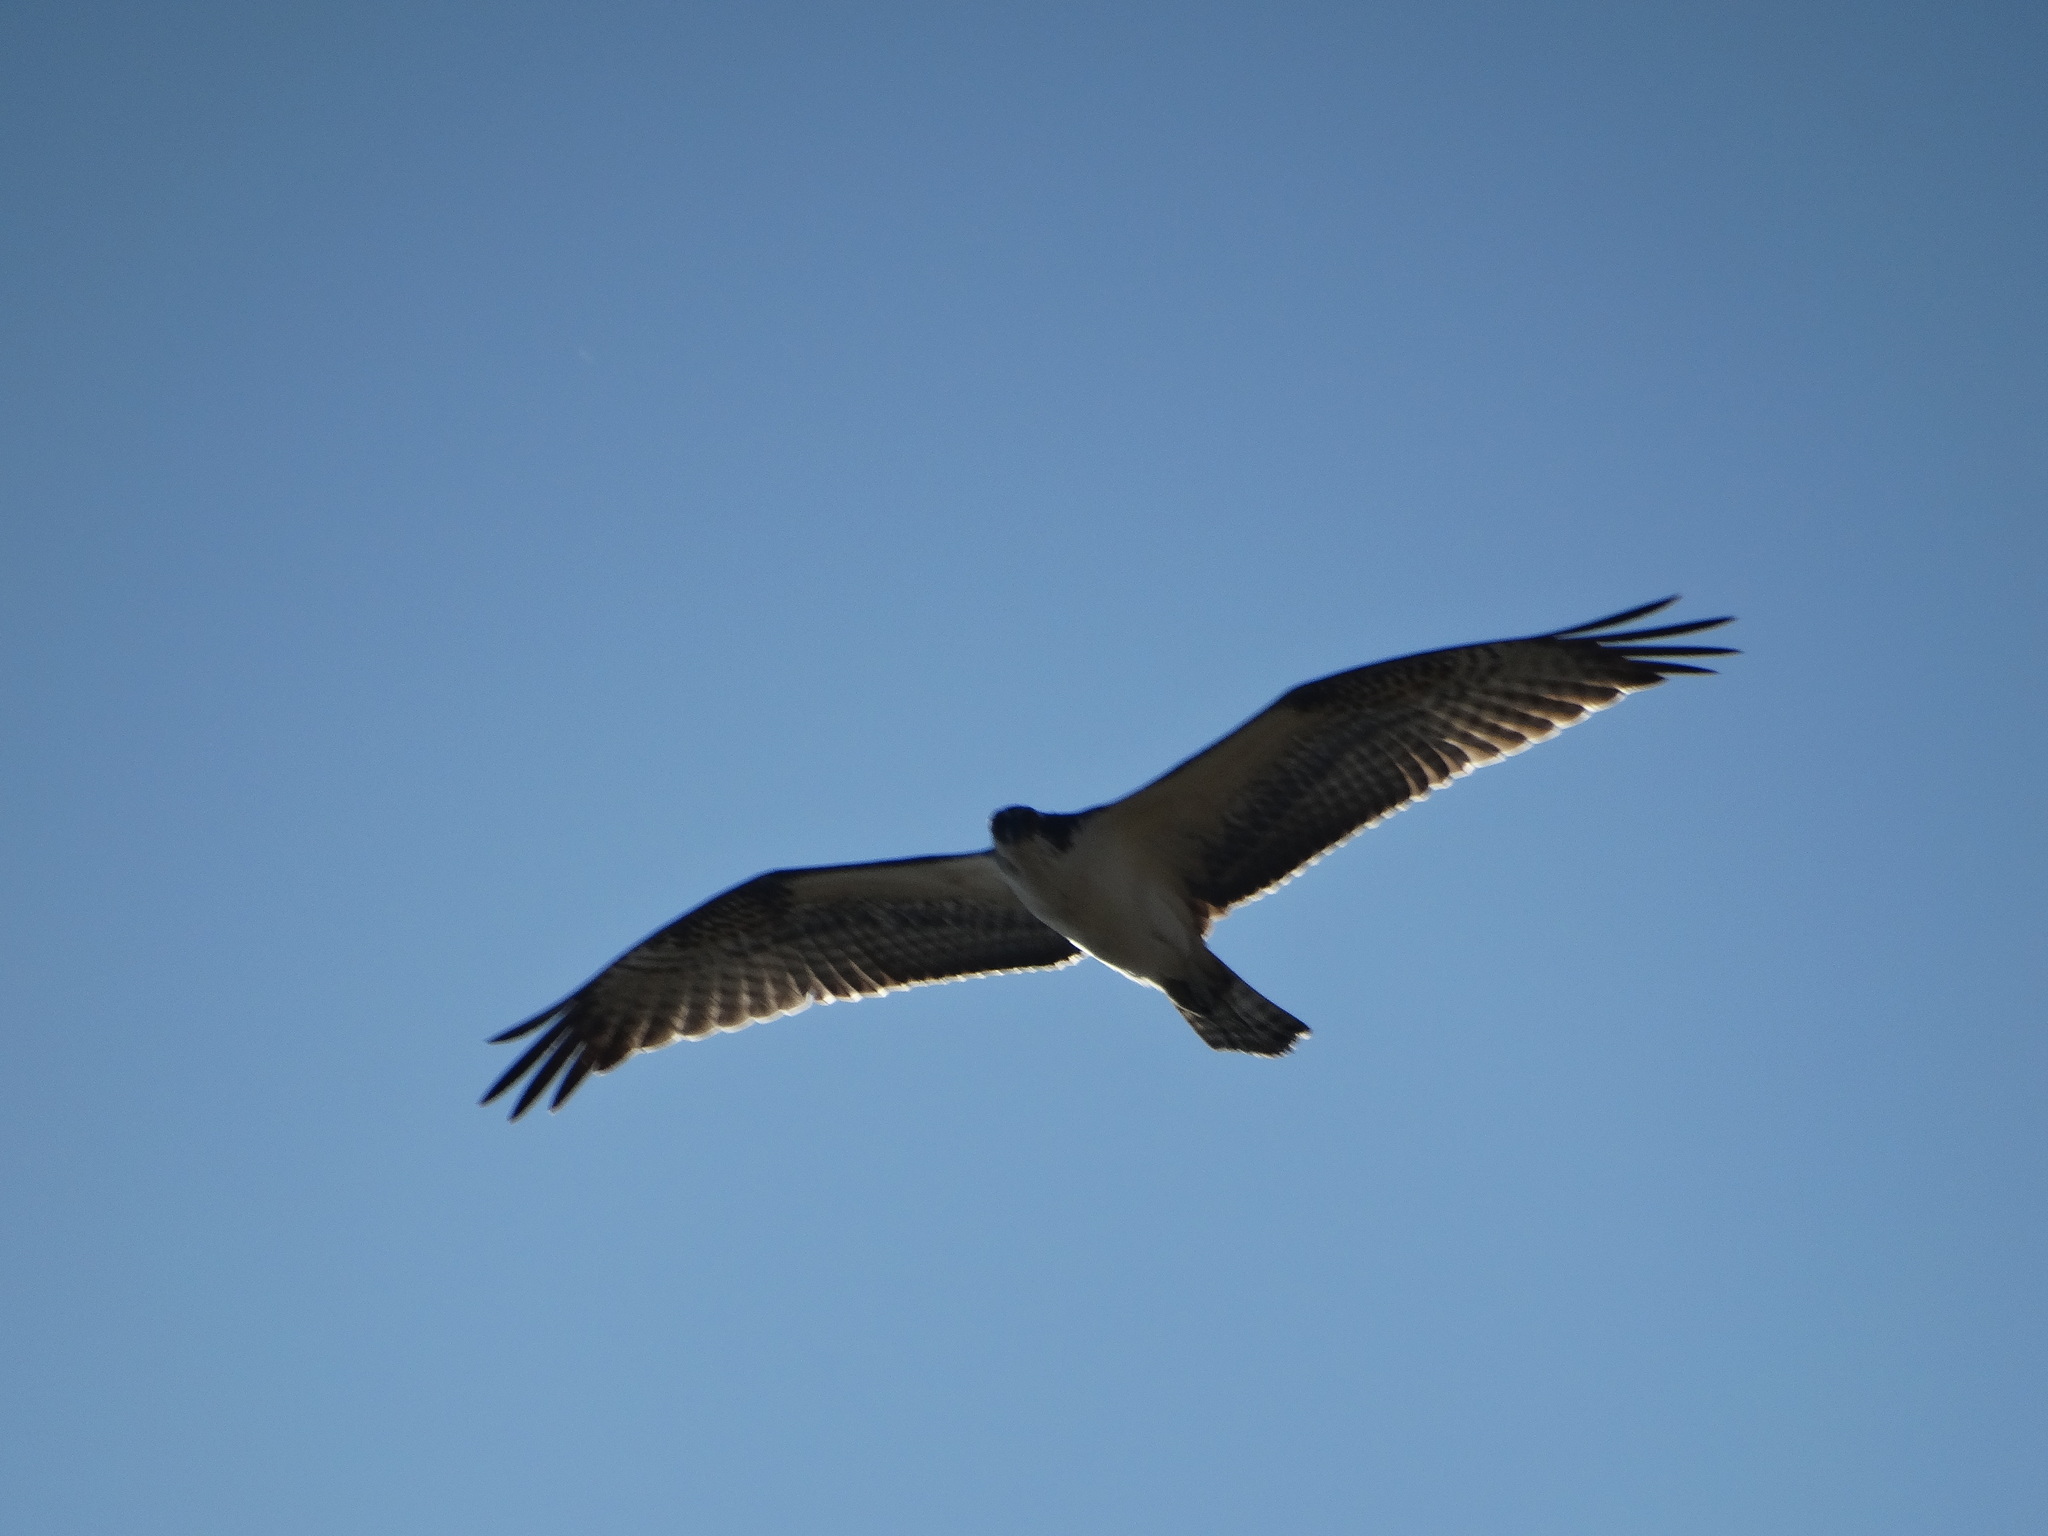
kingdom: Animalia
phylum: Chordata
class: Aves
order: Accipitriformes
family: Pandionidae
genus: Pandion
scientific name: Pandion haliaetus
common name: Osprey
